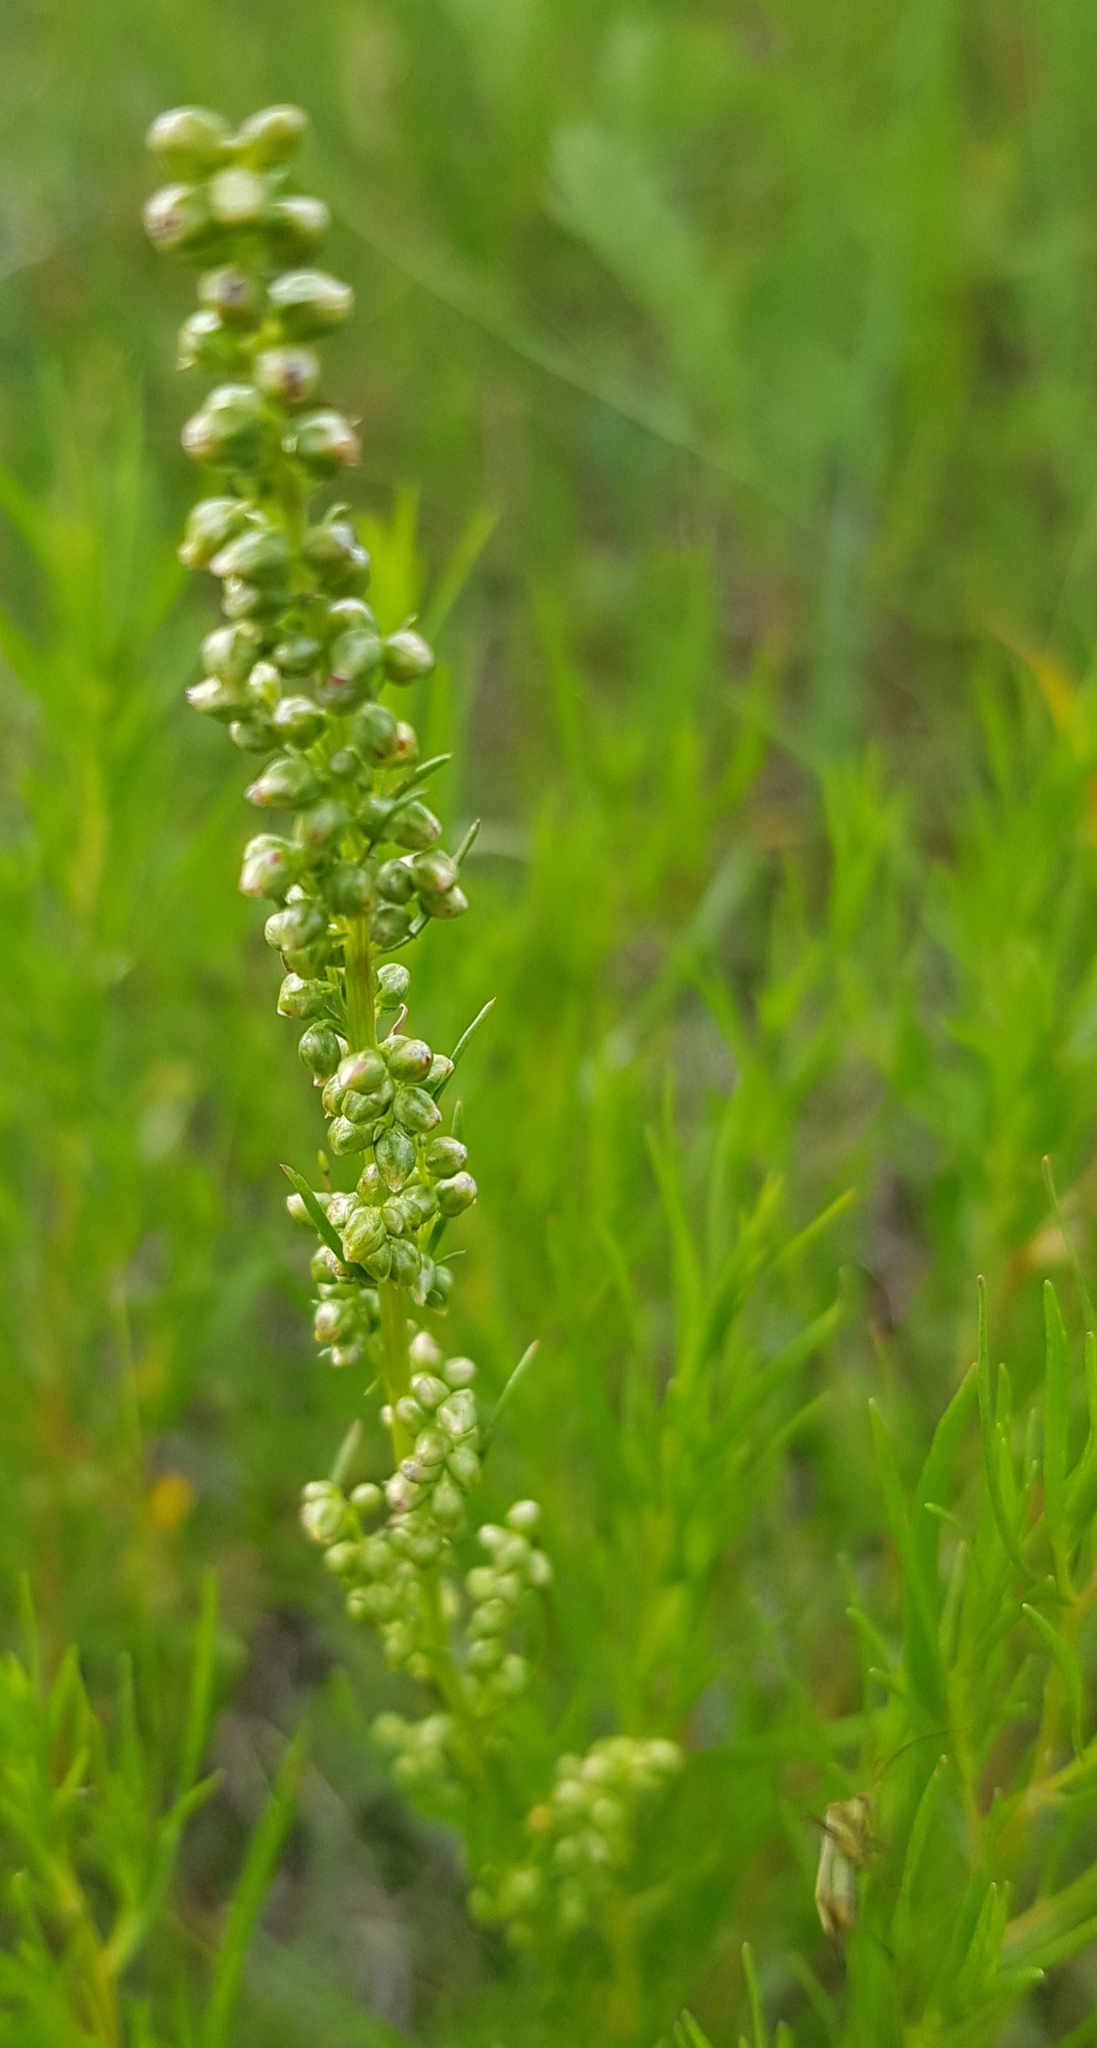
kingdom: Plantae
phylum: Tracheophyta
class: Magnoliopsida
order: Asterales
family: Asteraceae
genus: Artemisia
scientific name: Artemisia dracunculus
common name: Tarragon
